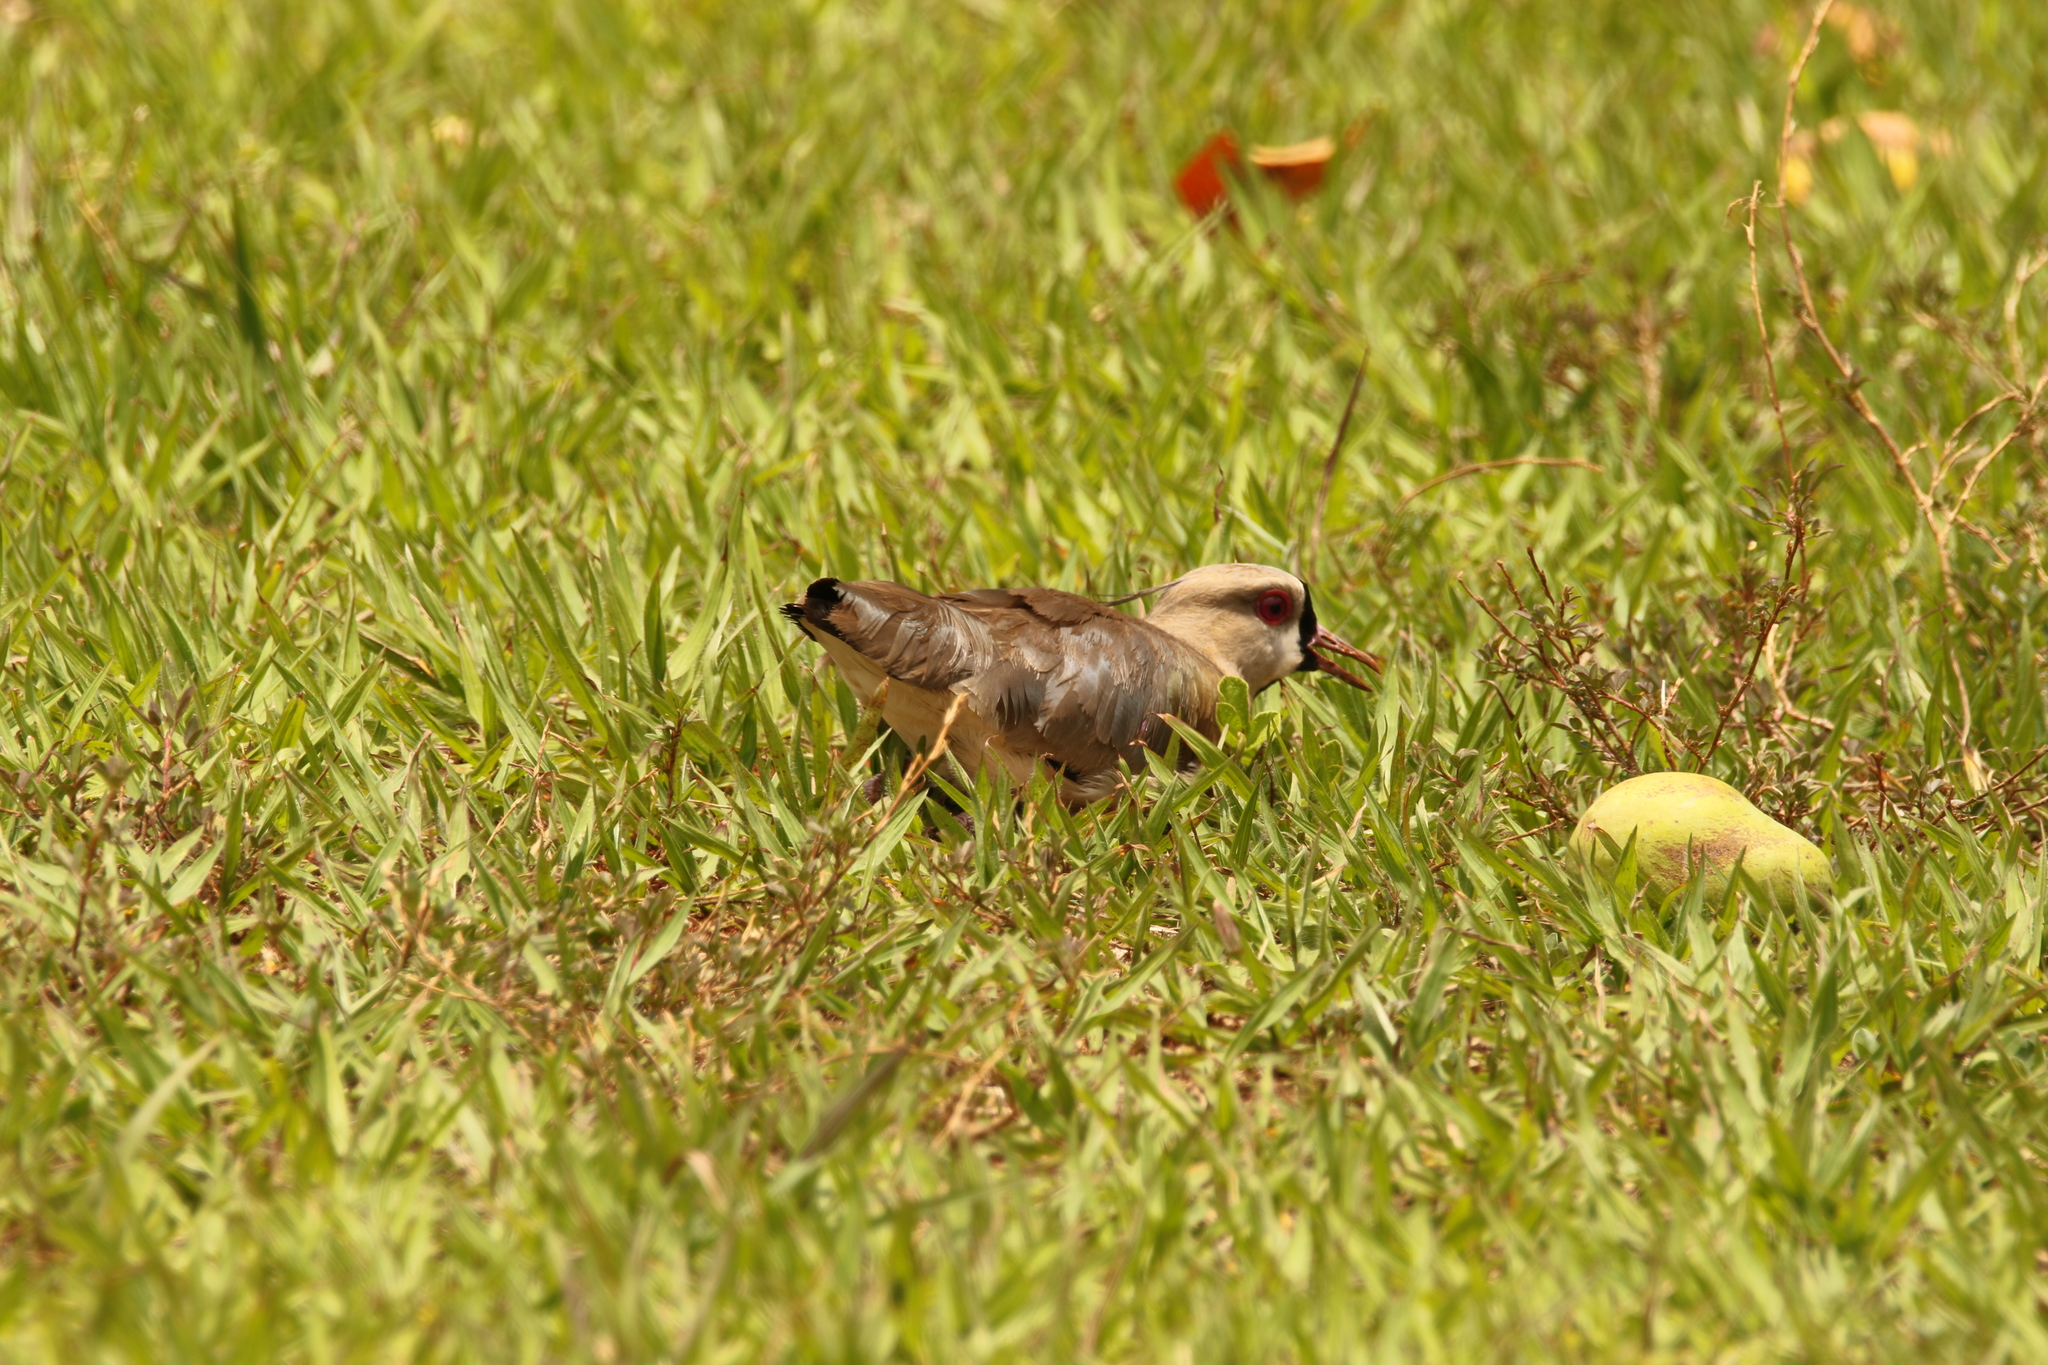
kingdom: Animalia
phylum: Chordata
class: Aves
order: Charadriiformes
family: Charadriidae
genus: Vanellus
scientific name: Vanellus chilensis
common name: Southern lapwing
